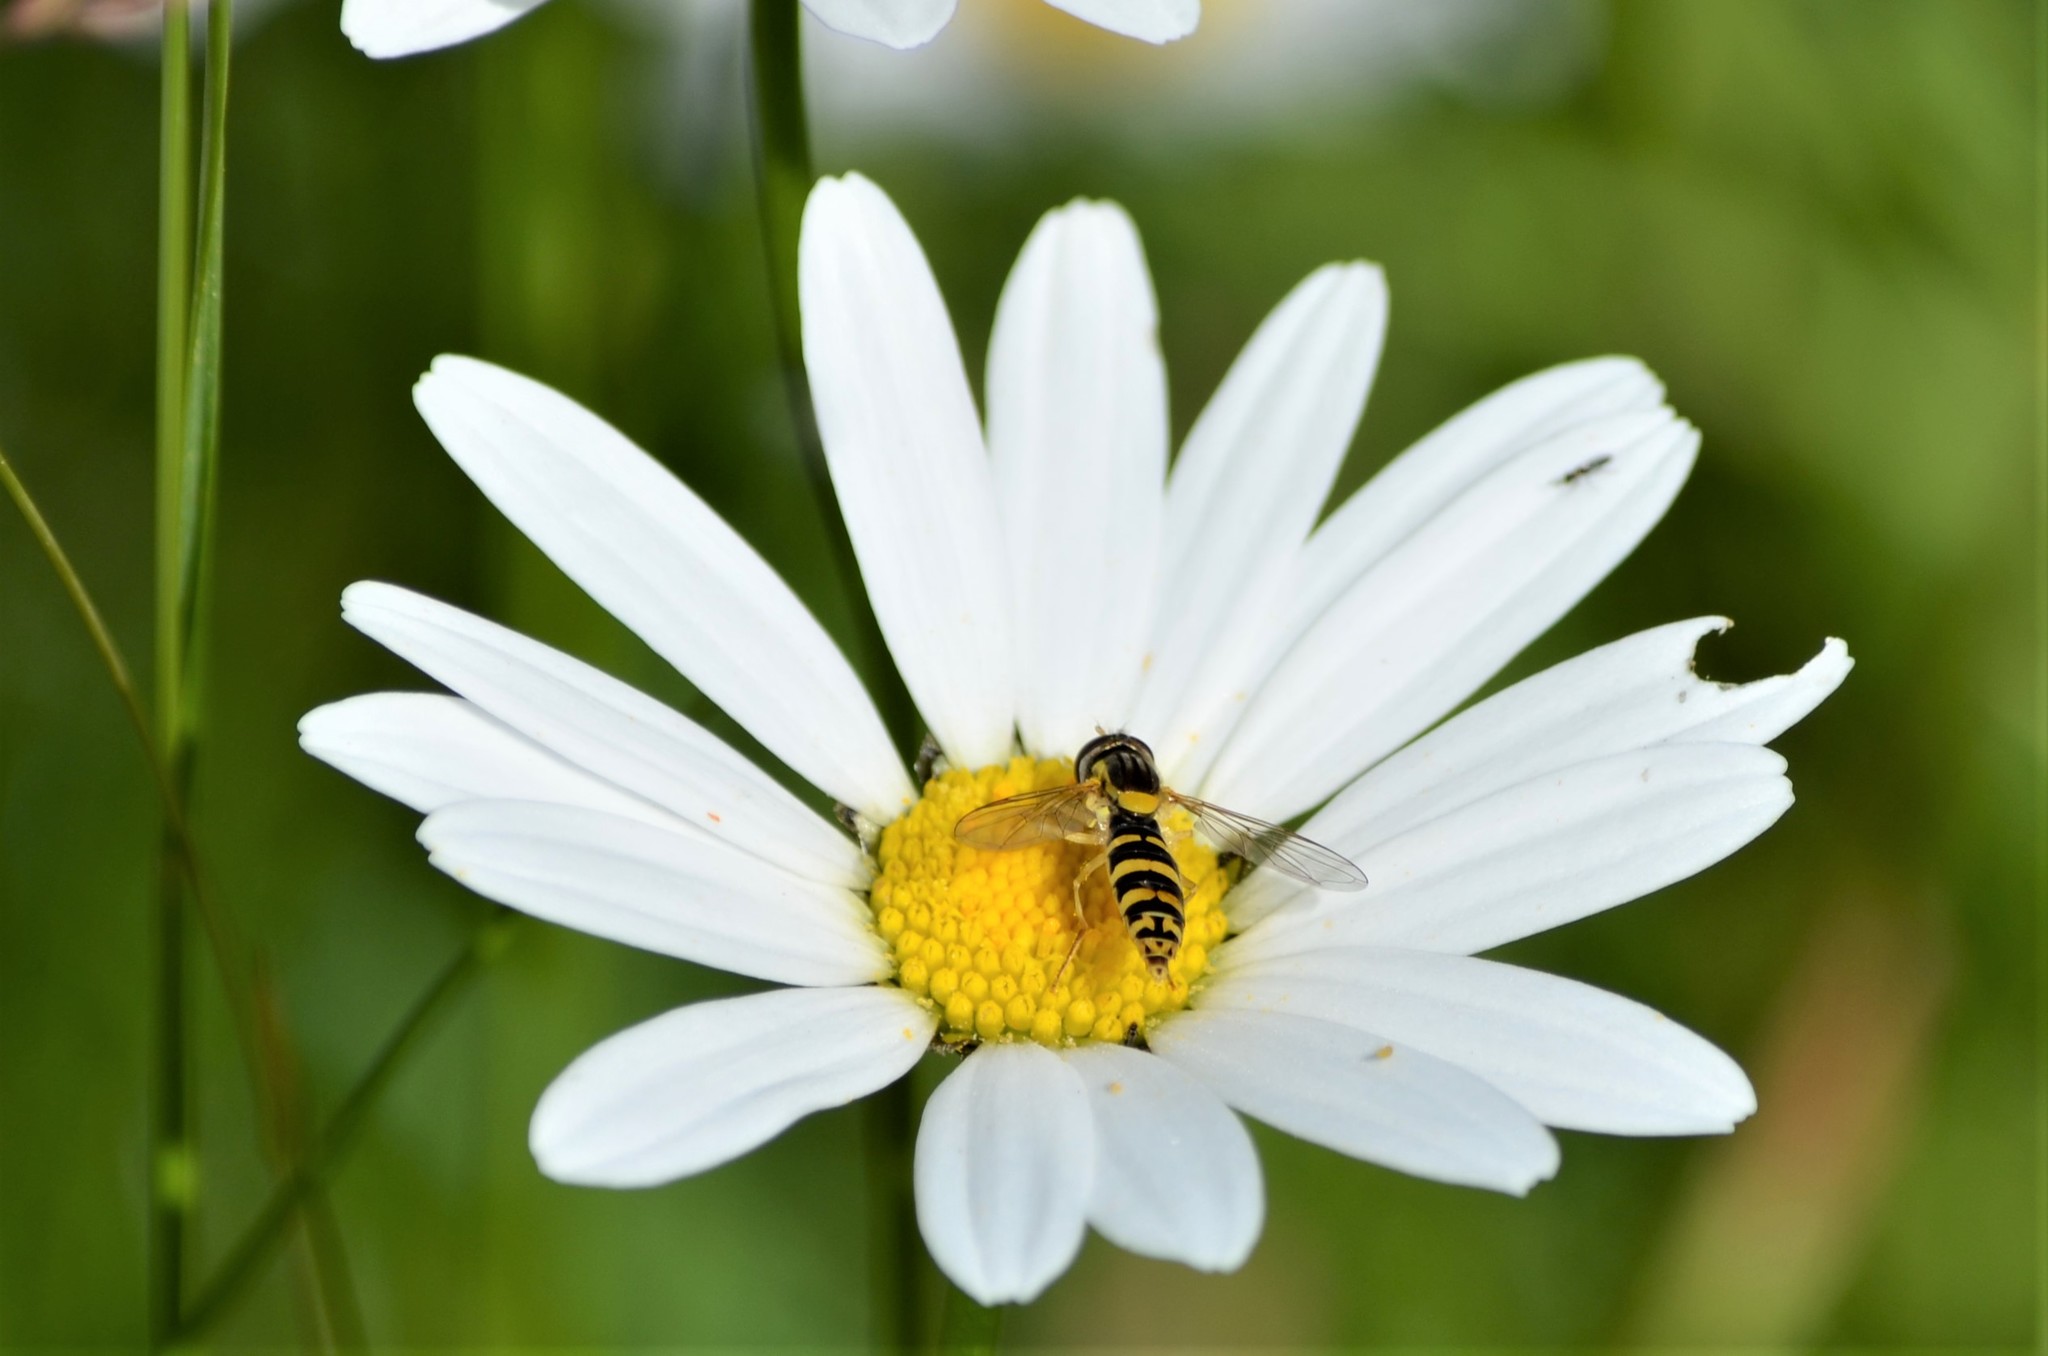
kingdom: Animalia
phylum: Arthropoda
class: Insecta
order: Diptera
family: Syrphidae
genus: Sphaerophoria
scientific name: Sphaerophoria
